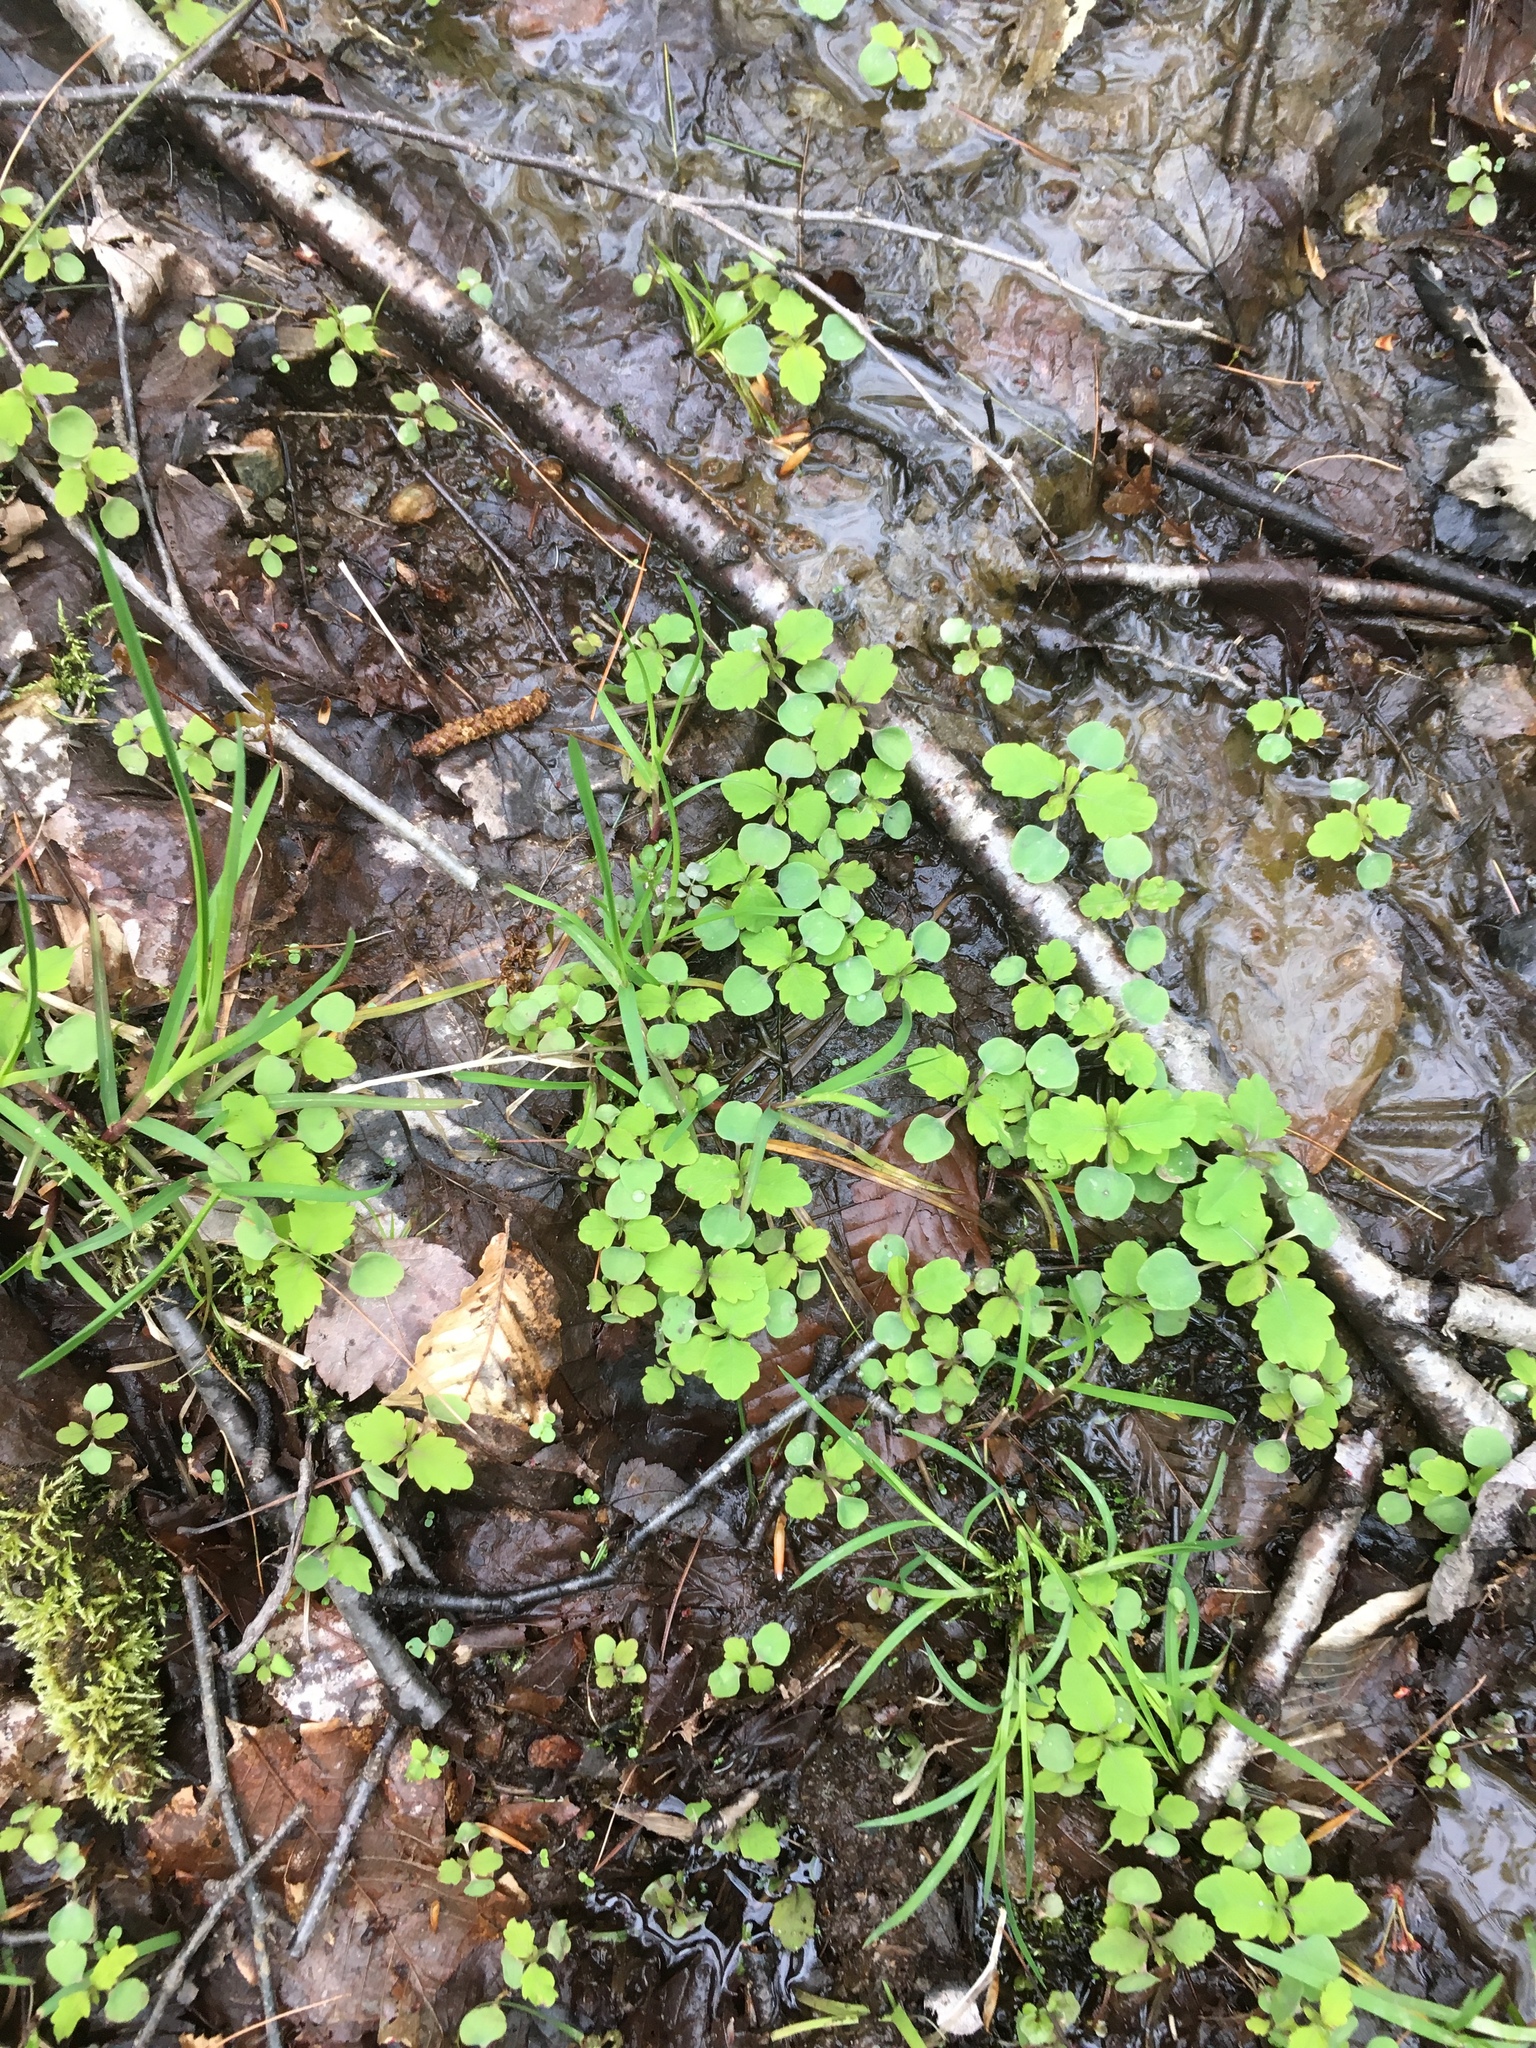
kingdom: Plantae
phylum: Tracheophyta
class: Magnoliopsida
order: Ericales
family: Balsaminaceae
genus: Impatiens
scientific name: Impatiens capensis
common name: Orange balsam
